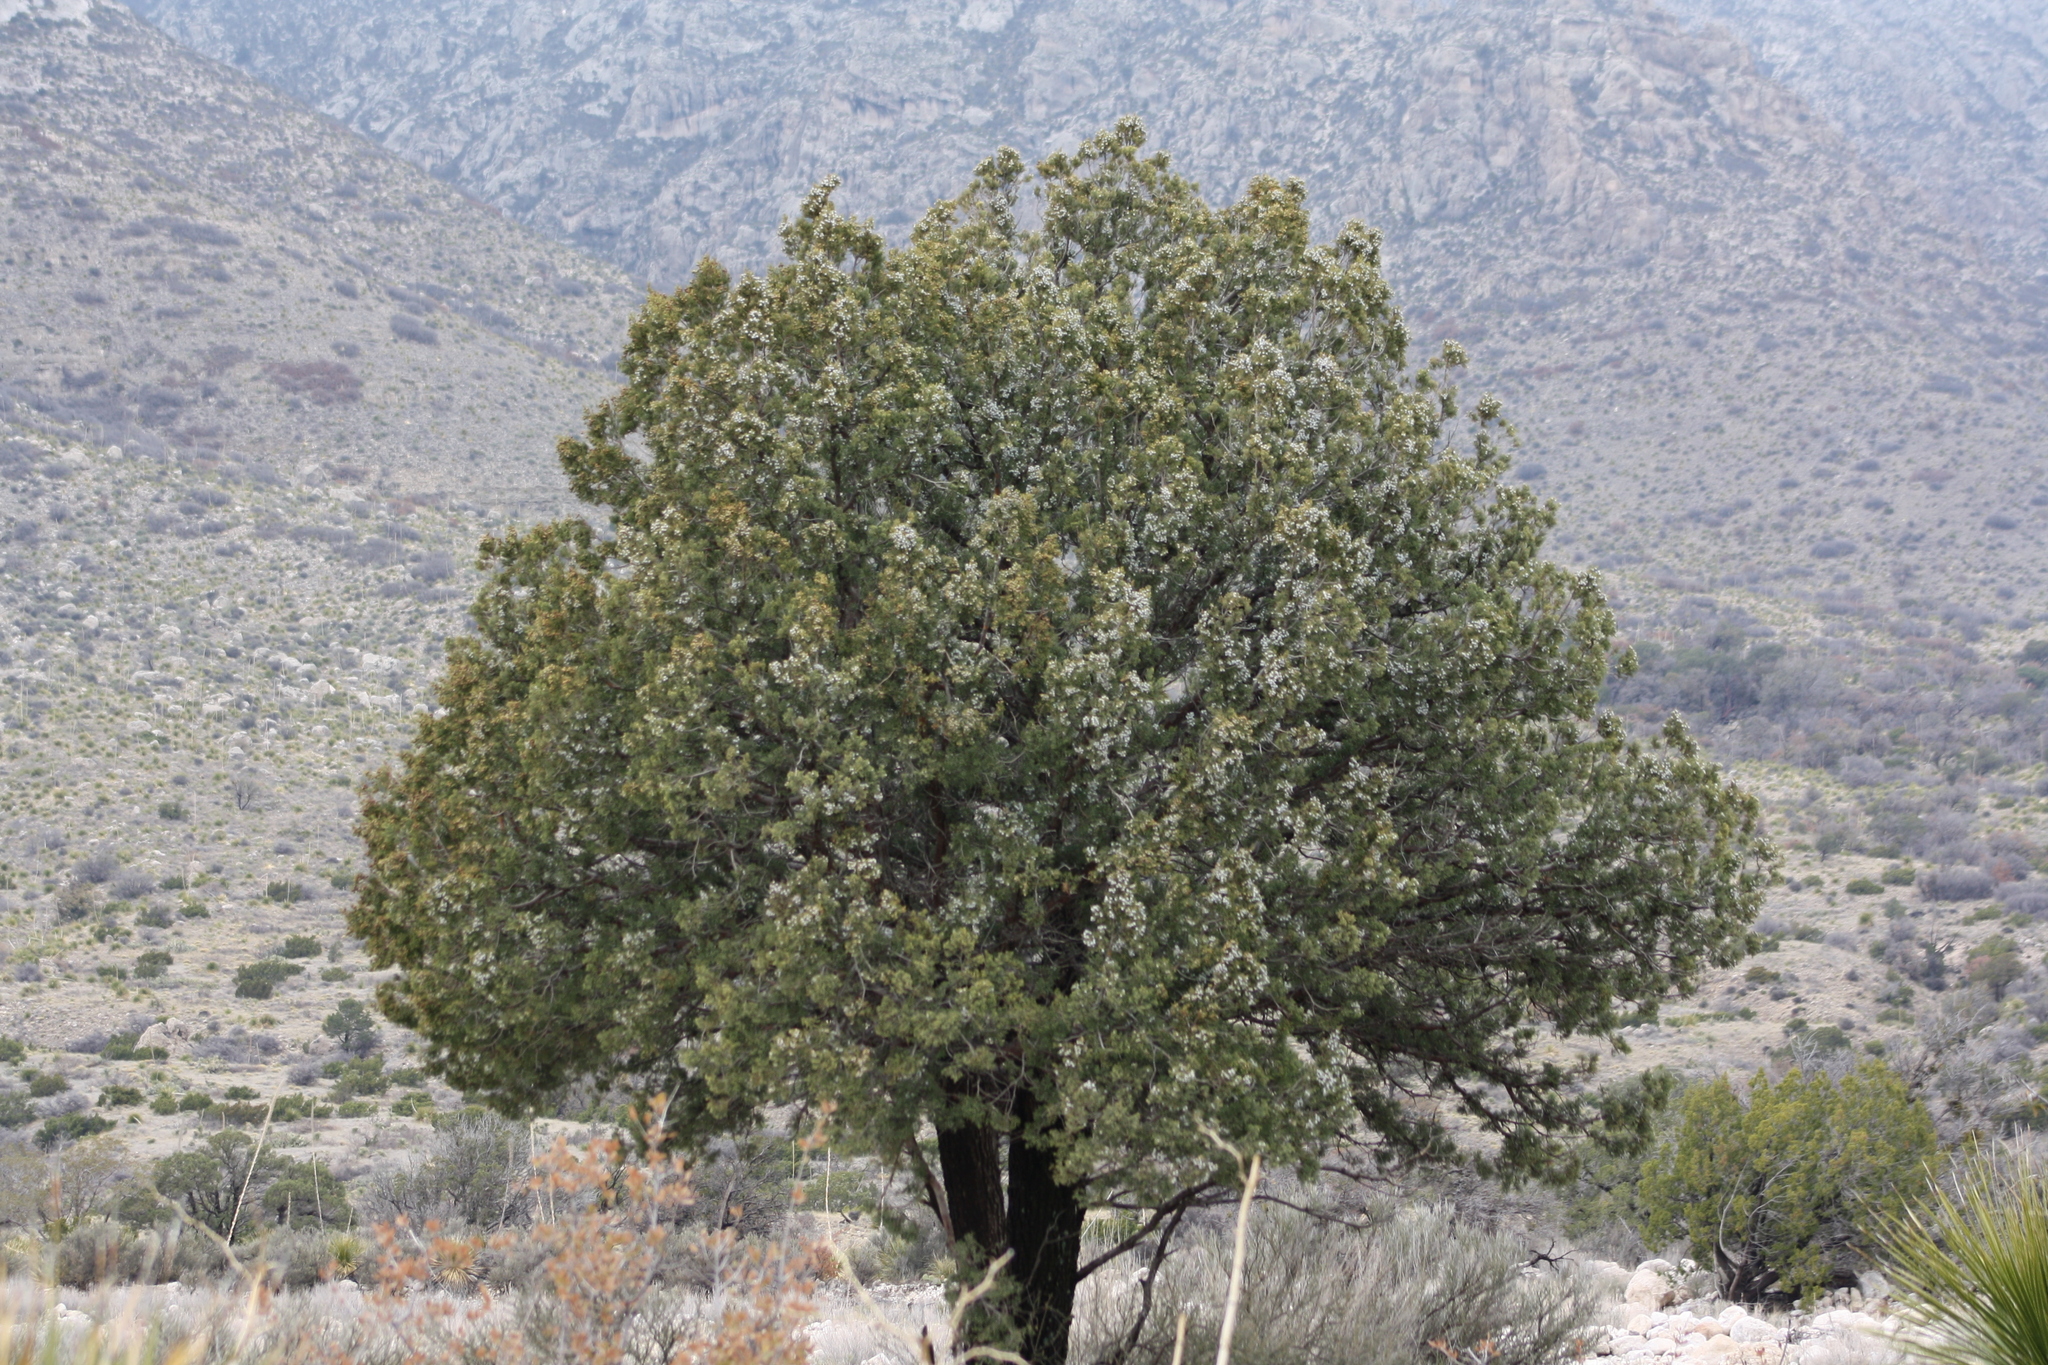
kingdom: Plantae
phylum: Tracheophyta
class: Pinopsida
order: Pinales
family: Cupressaceae
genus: Juniperus
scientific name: Juniperus deppeana
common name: Alligator juniper
